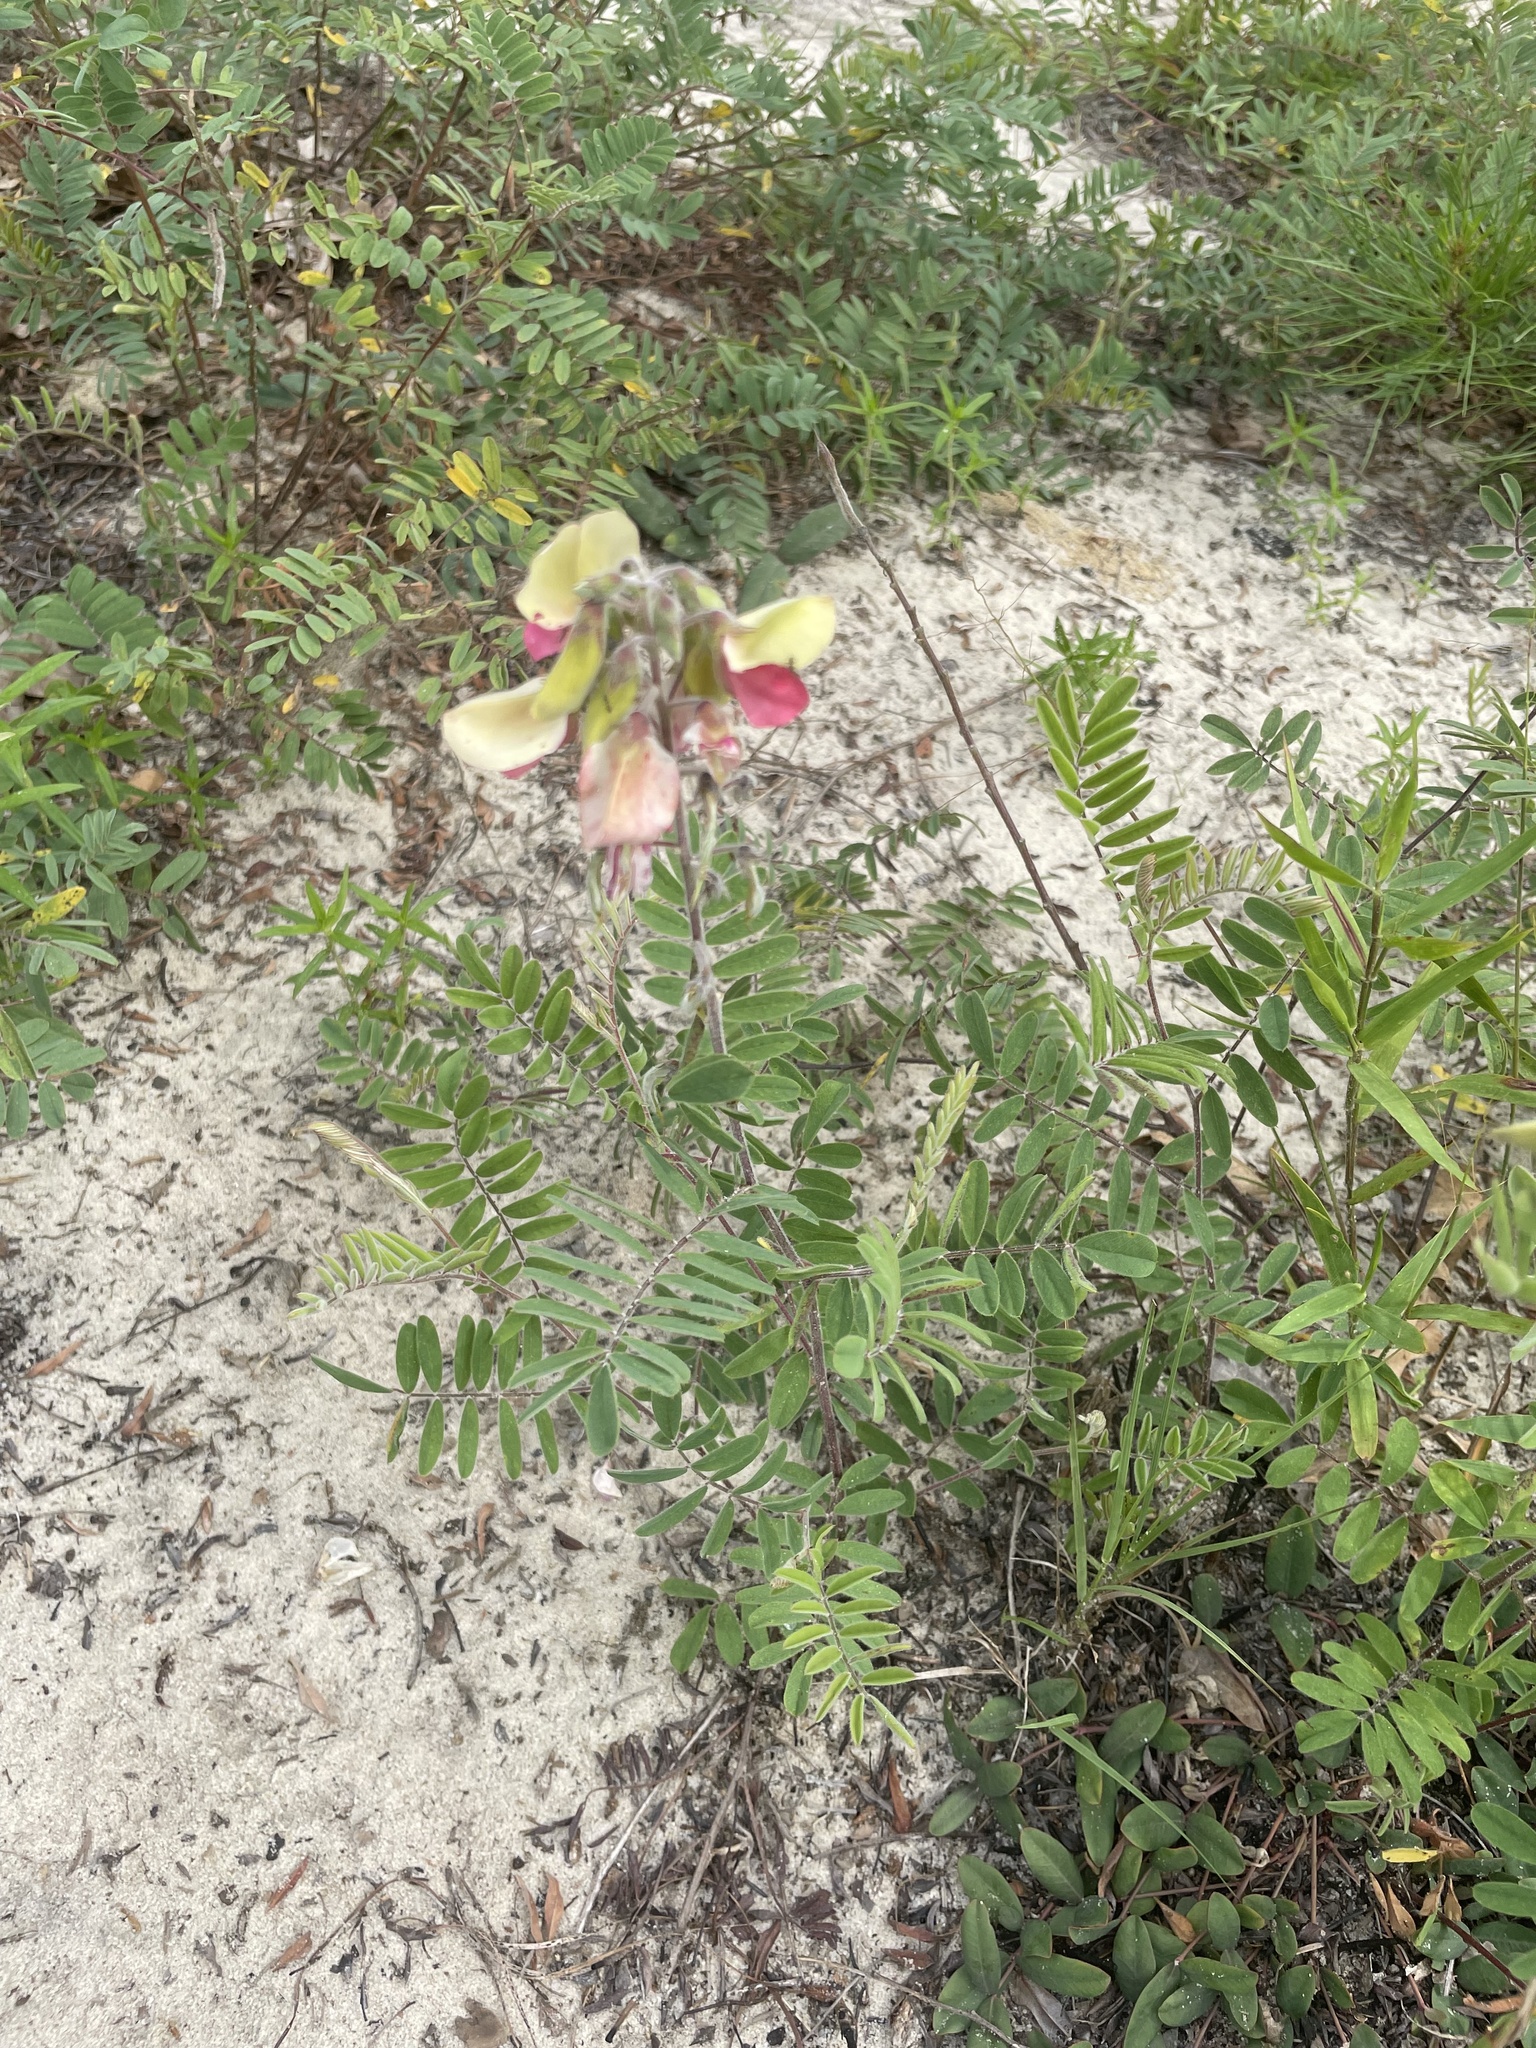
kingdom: Plantae
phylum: Tracheophyta
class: Magnoliopsida
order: Fabales
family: Fabaceae
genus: Tephrosia
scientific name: Tephrosia virginiana
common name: Rabbit-pea
